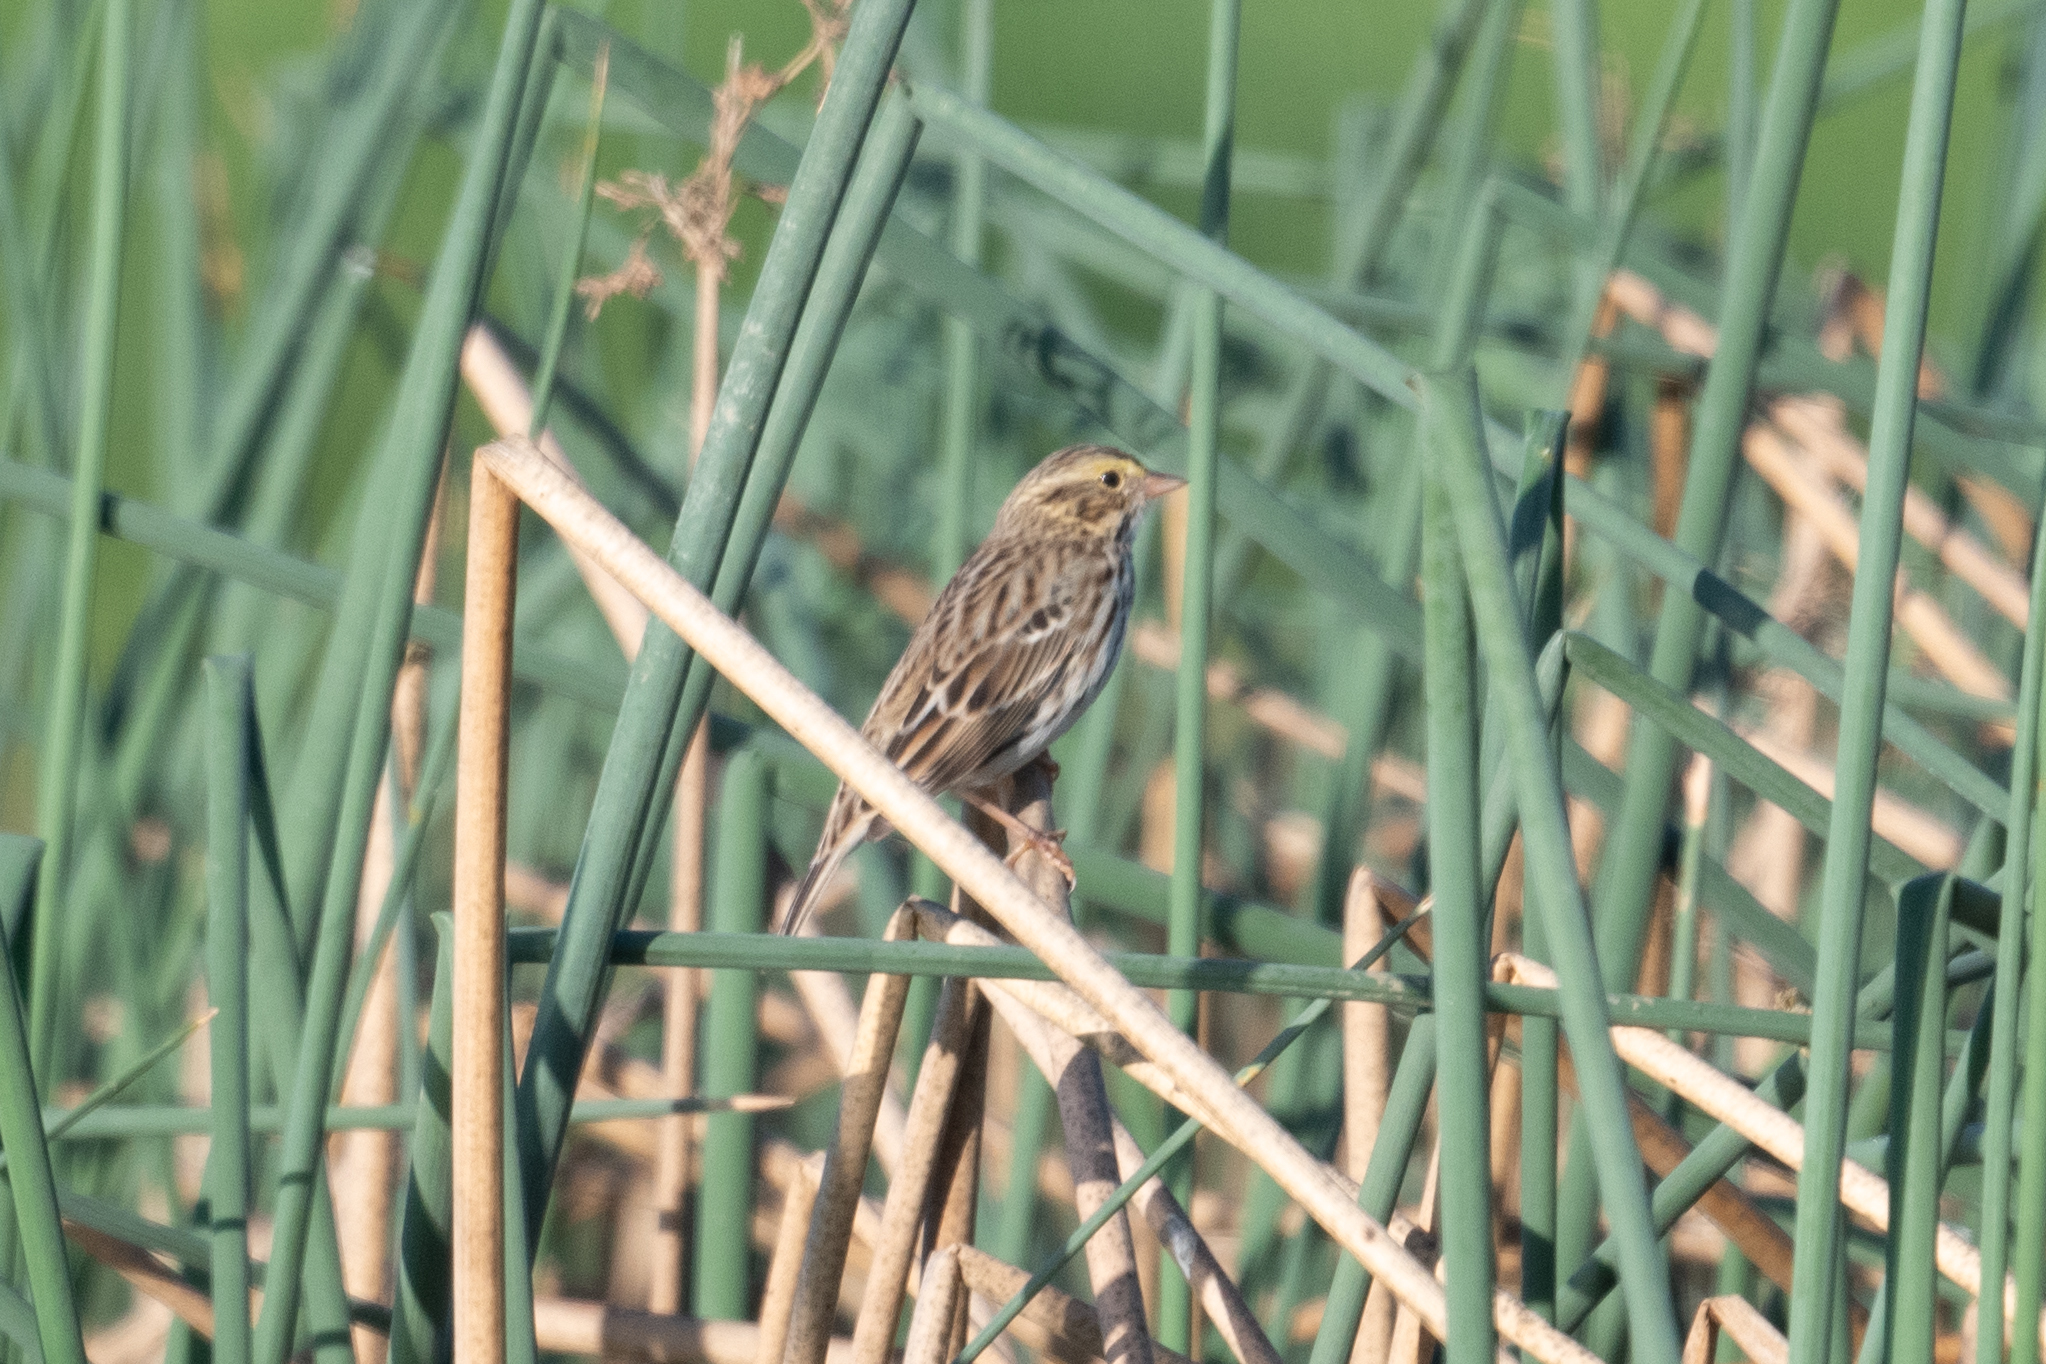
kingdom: Animalia
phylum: Chordata
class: Aves
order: Passeriformes
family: Passerellidae
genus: Passerculus
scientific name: Passerculus sandwichensis
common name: Savannah sparrow
